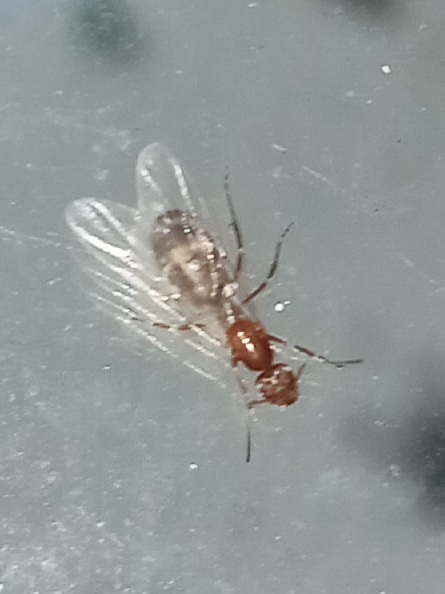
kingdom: Animalia
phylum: Arthropoda
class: Insecta
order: Hymenoptera
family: Formicidae
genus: Dorymyrmex
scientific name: Dorymyrmex bureni
